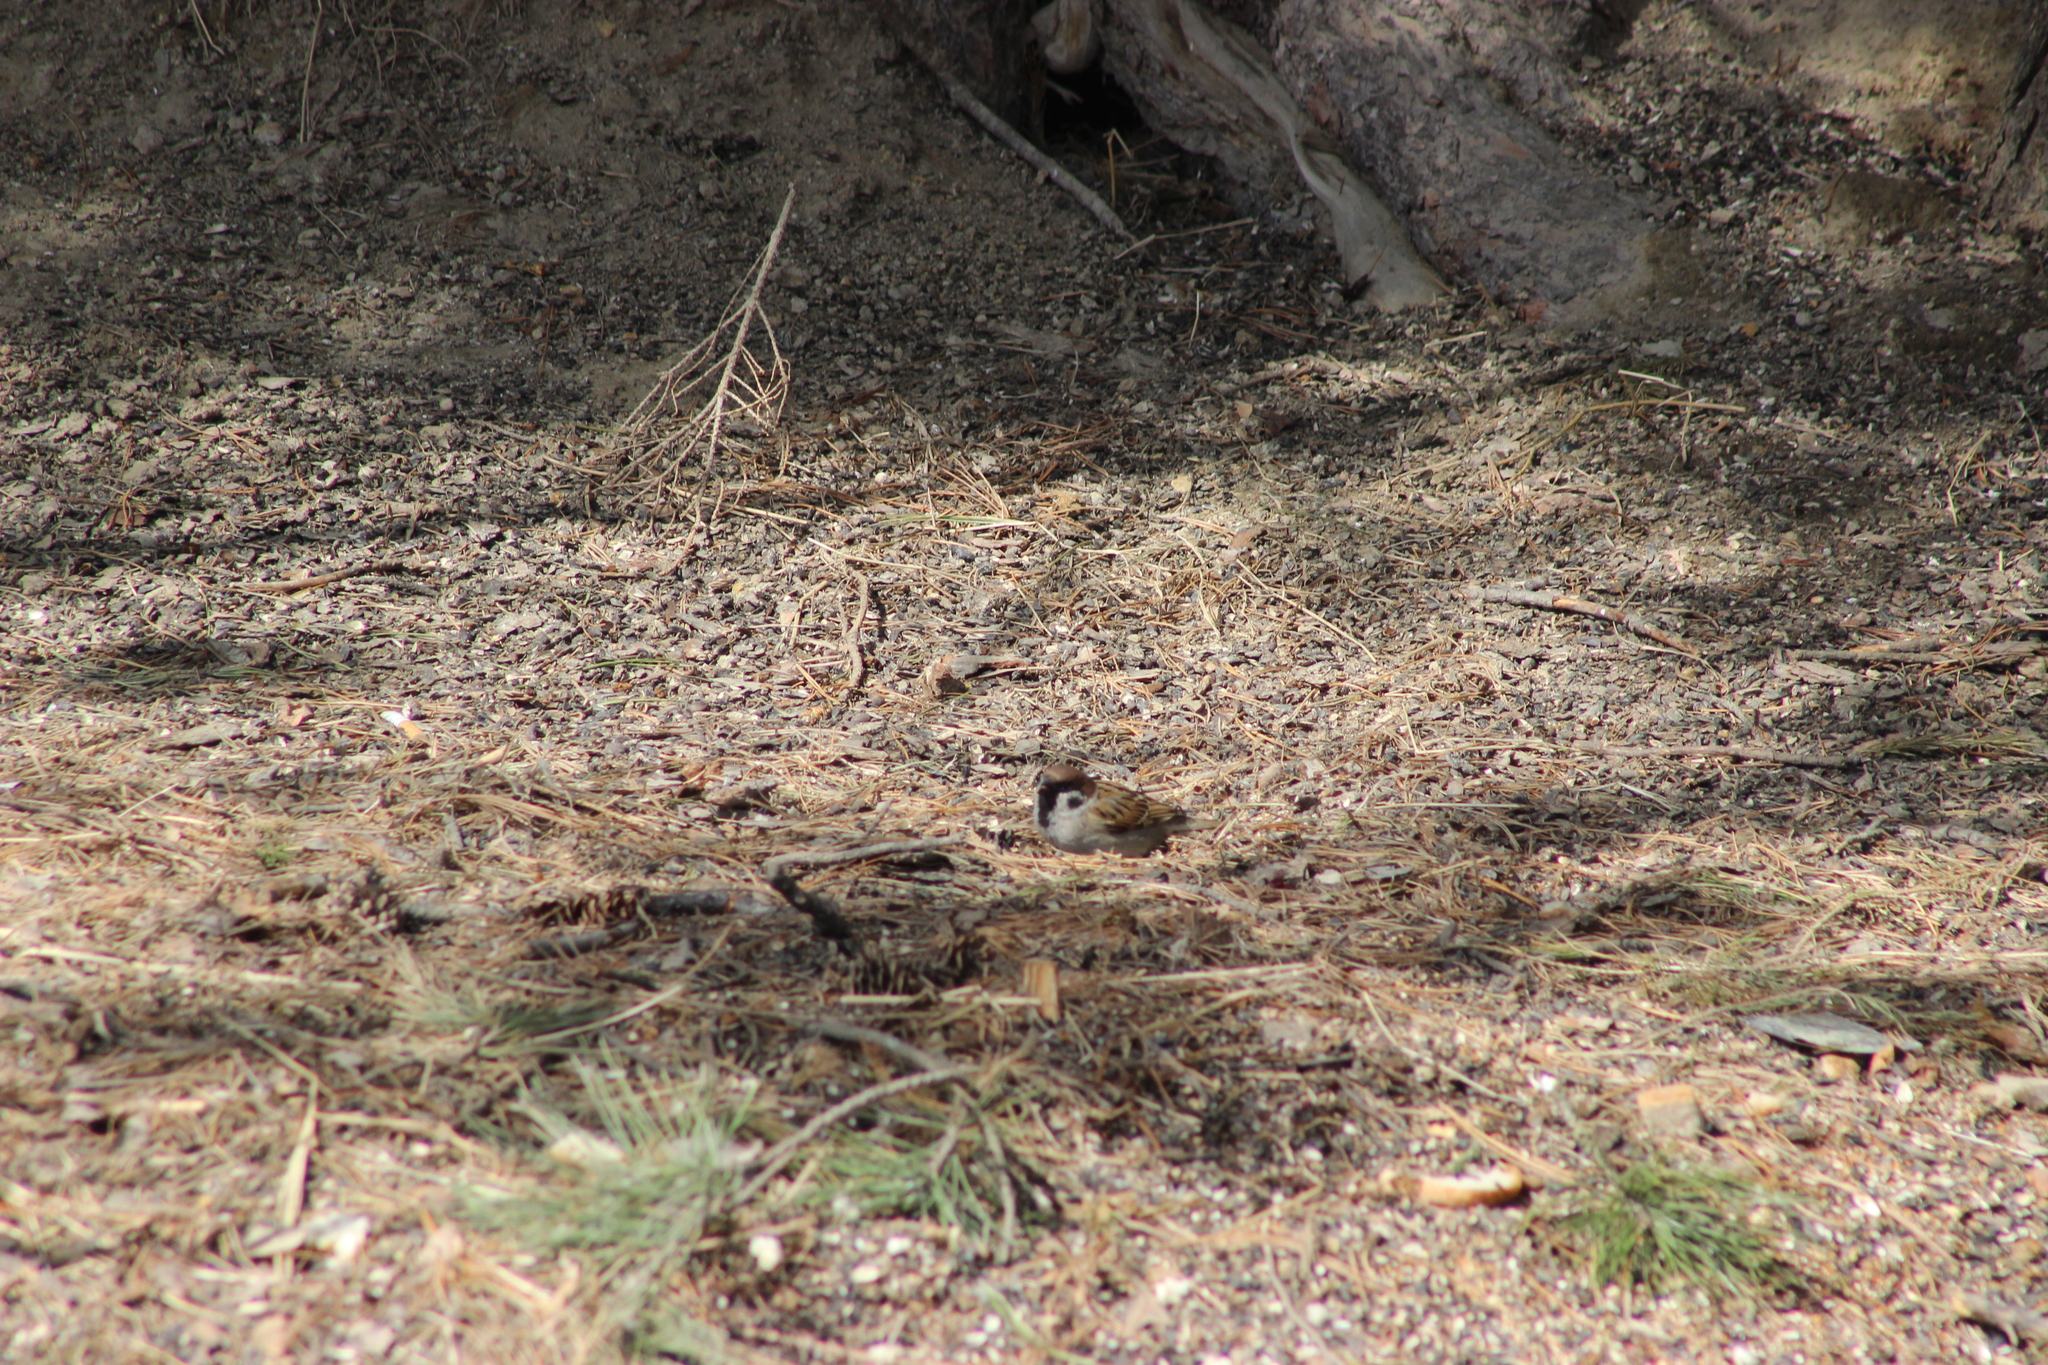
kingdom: Animalia
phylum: Chordata
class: Aves
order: Passeriformes
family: Passeridae
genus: Passer
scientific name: Passer montanus
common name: Eurasian tree sparrow
